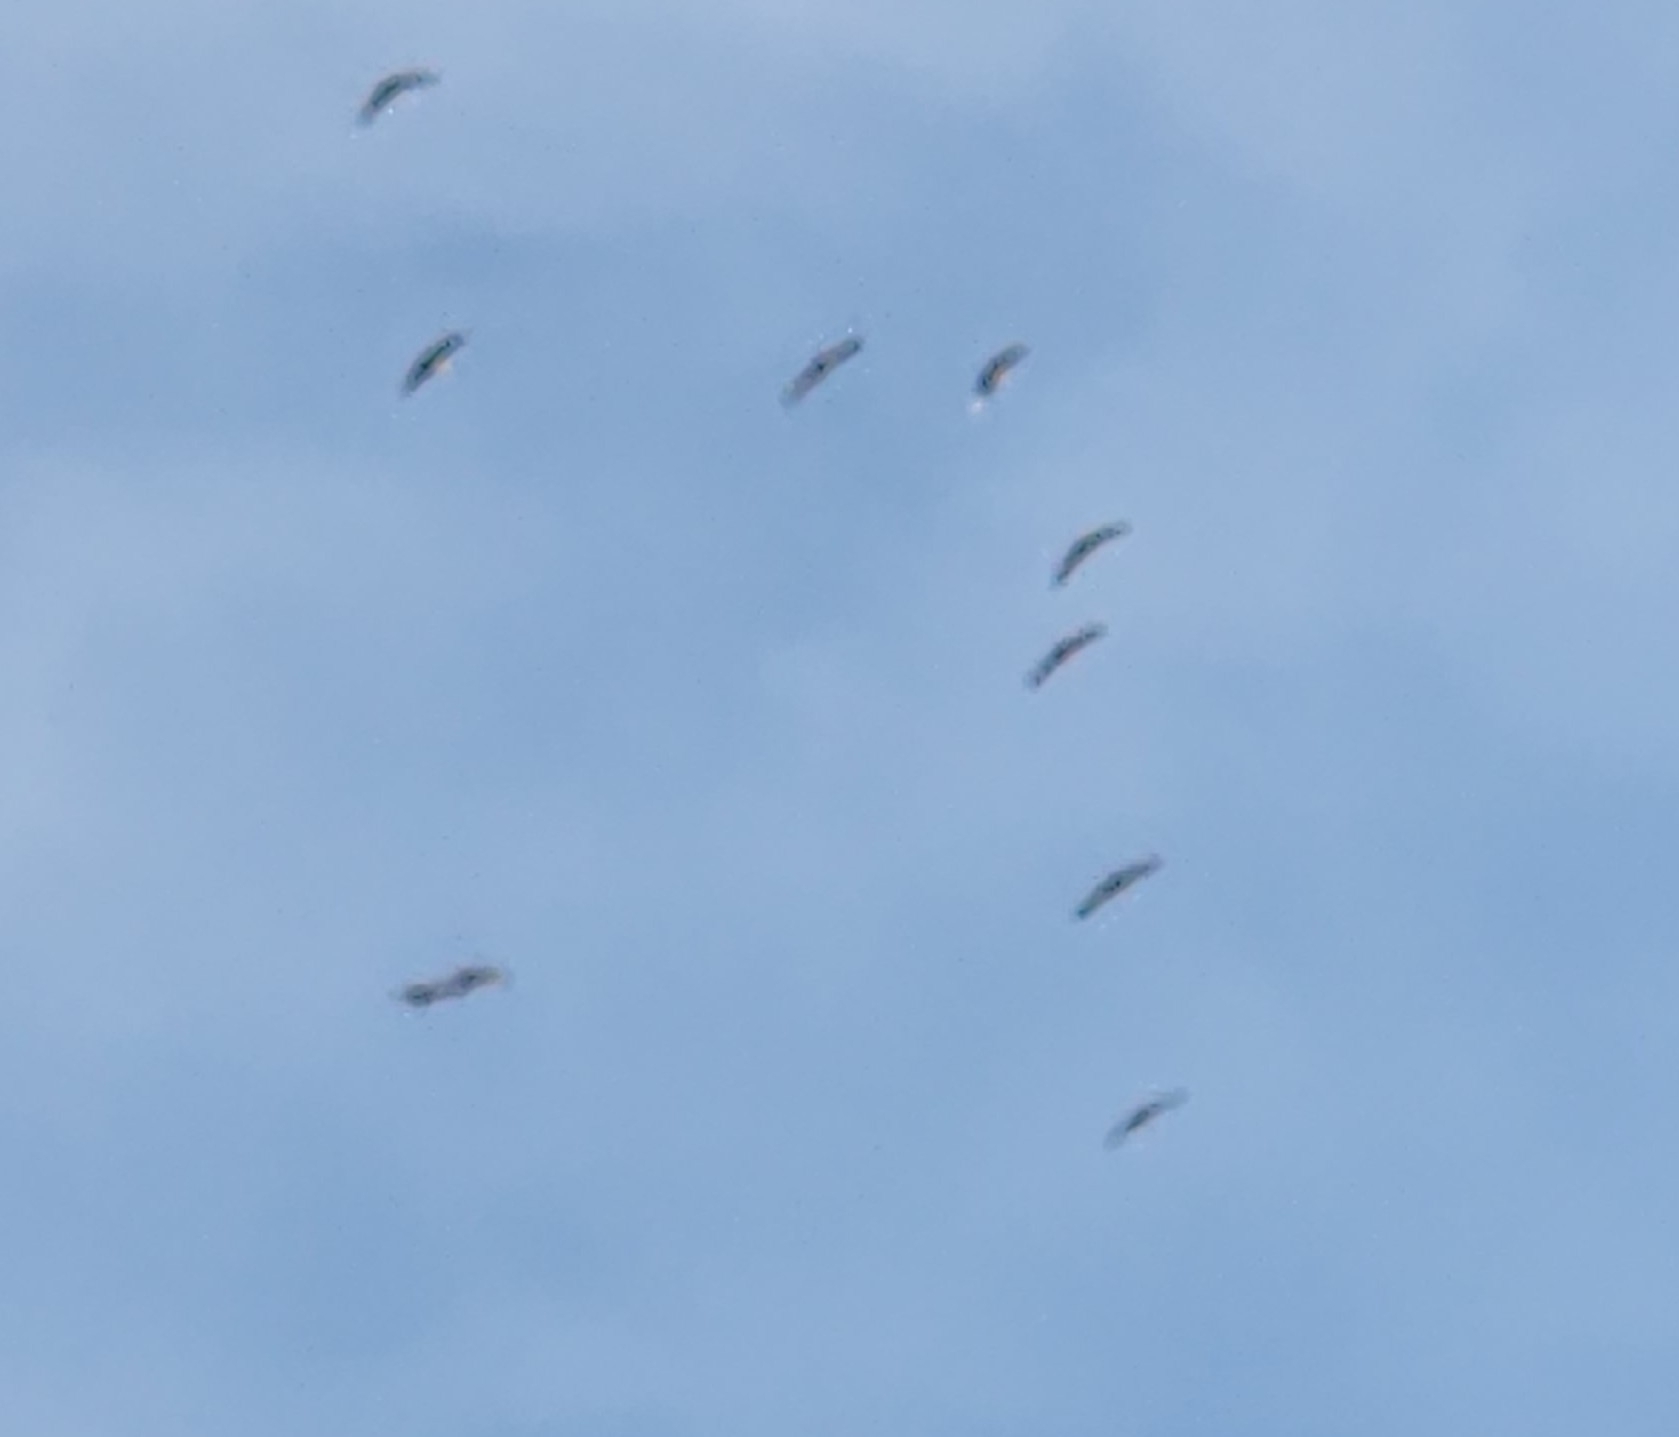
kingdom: Animalia
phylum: Chordata
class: Aves
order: Gruiformes
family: Gruidae
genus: Grus
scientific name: Grus canadensis
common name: Sandhill crane
